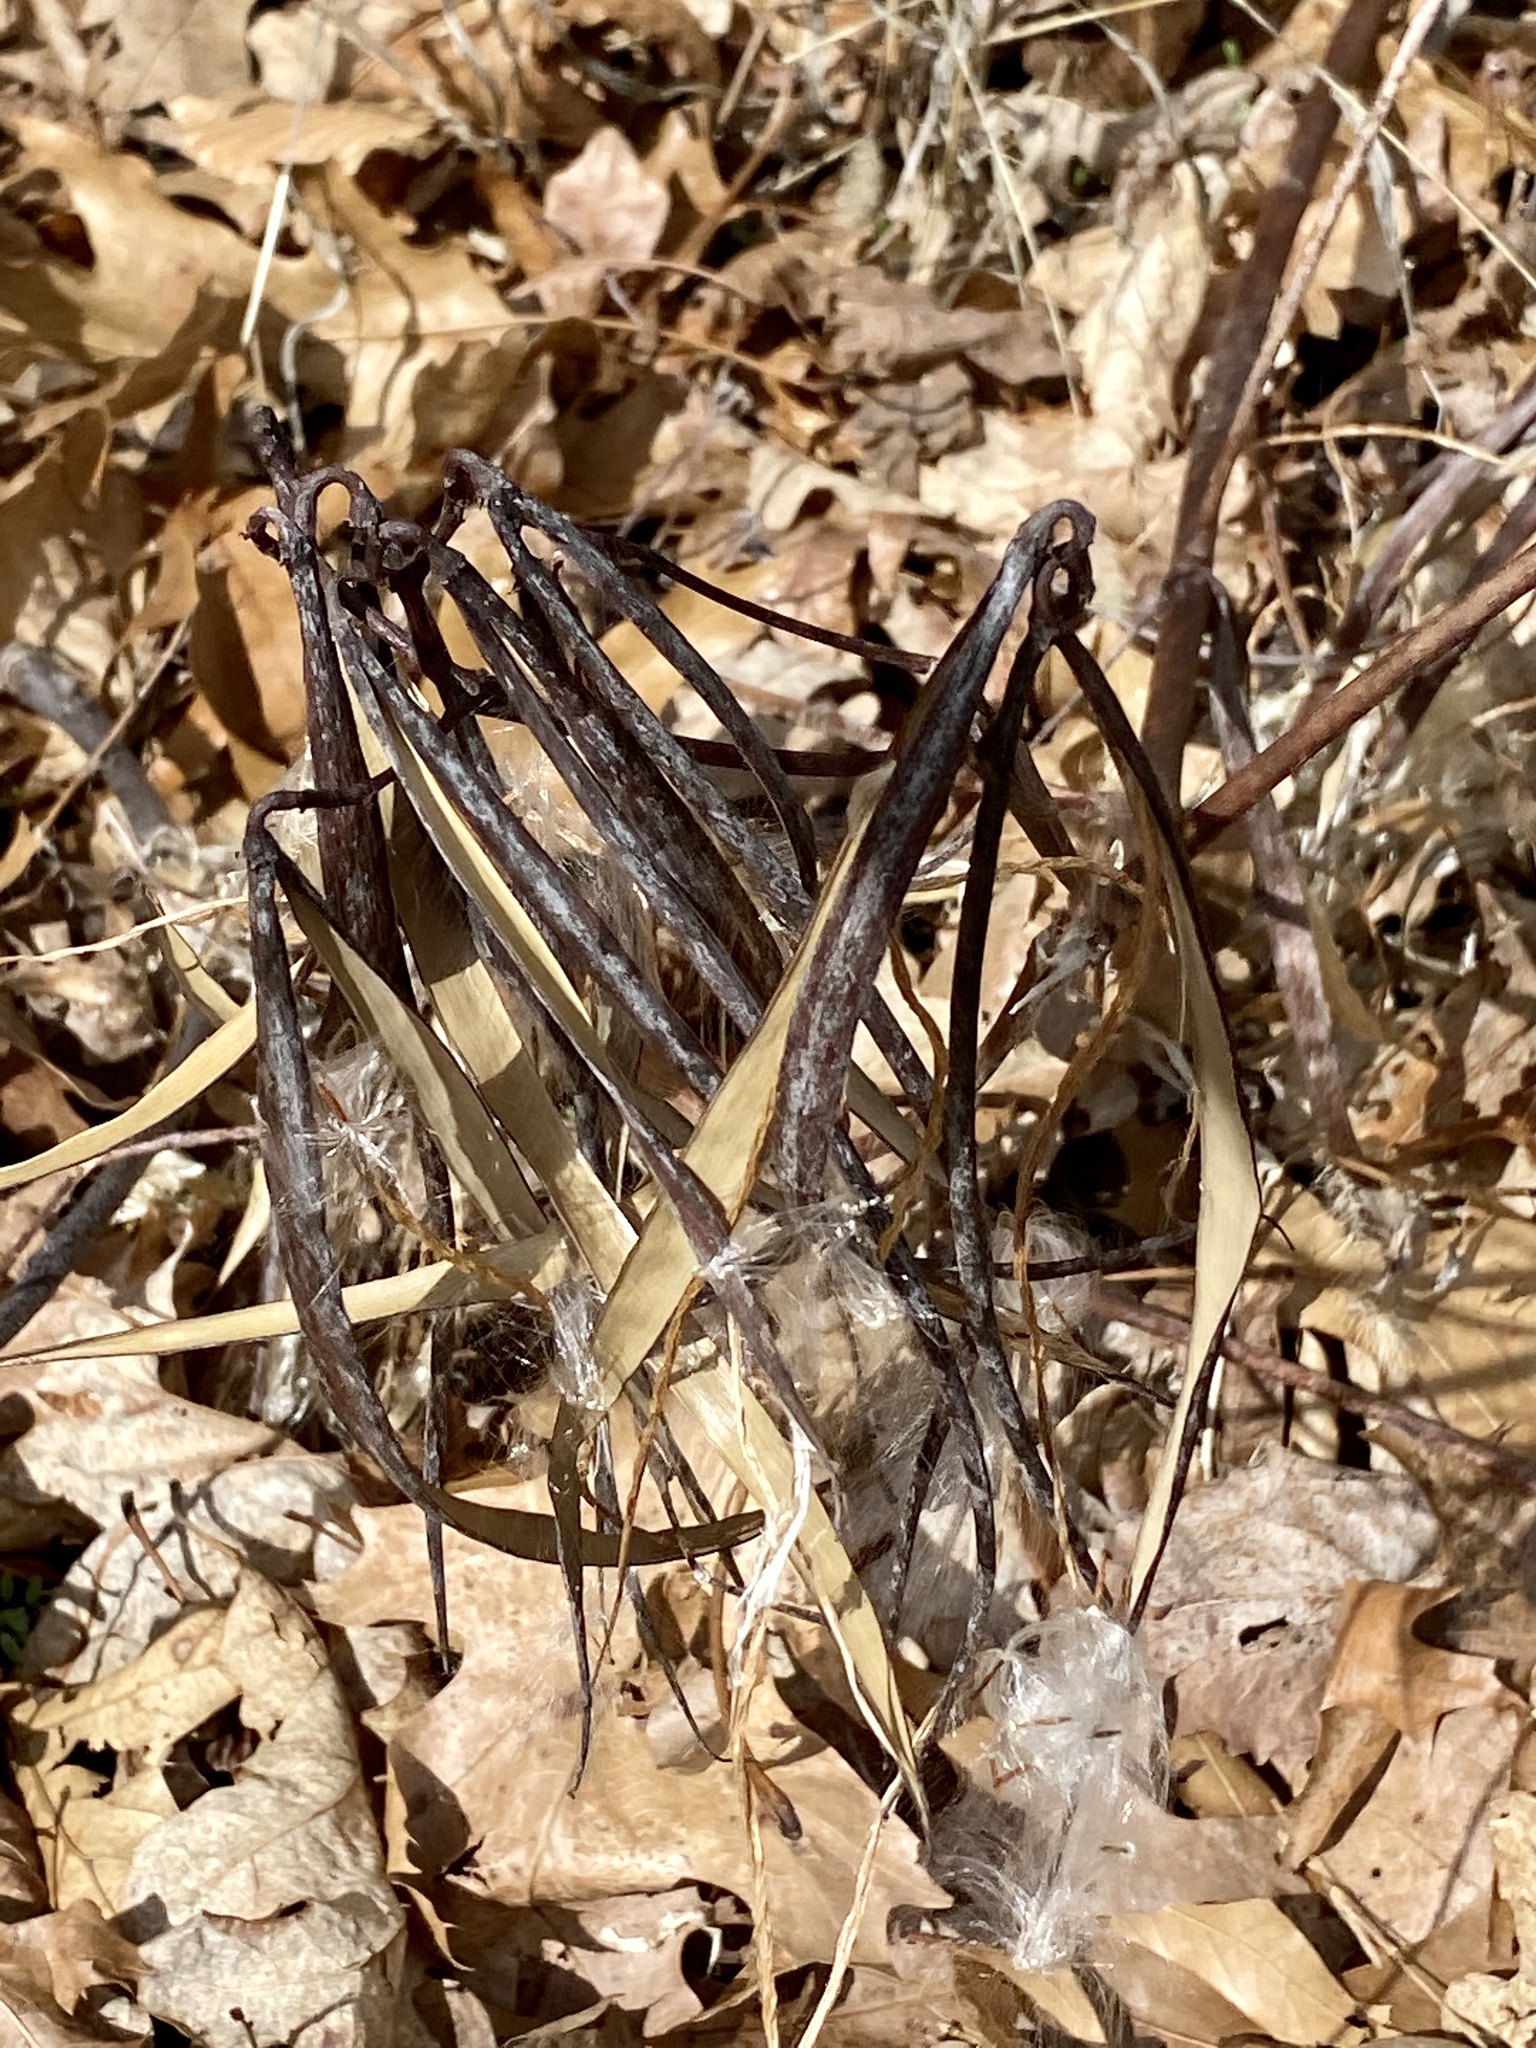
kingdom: Plantae
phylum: Tracheophyta
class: Magnoliopsida
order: Gentianales
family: Apocynaceae
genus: Apocynum
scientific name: Apocynum cannabinum
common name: Hemp dogbane
